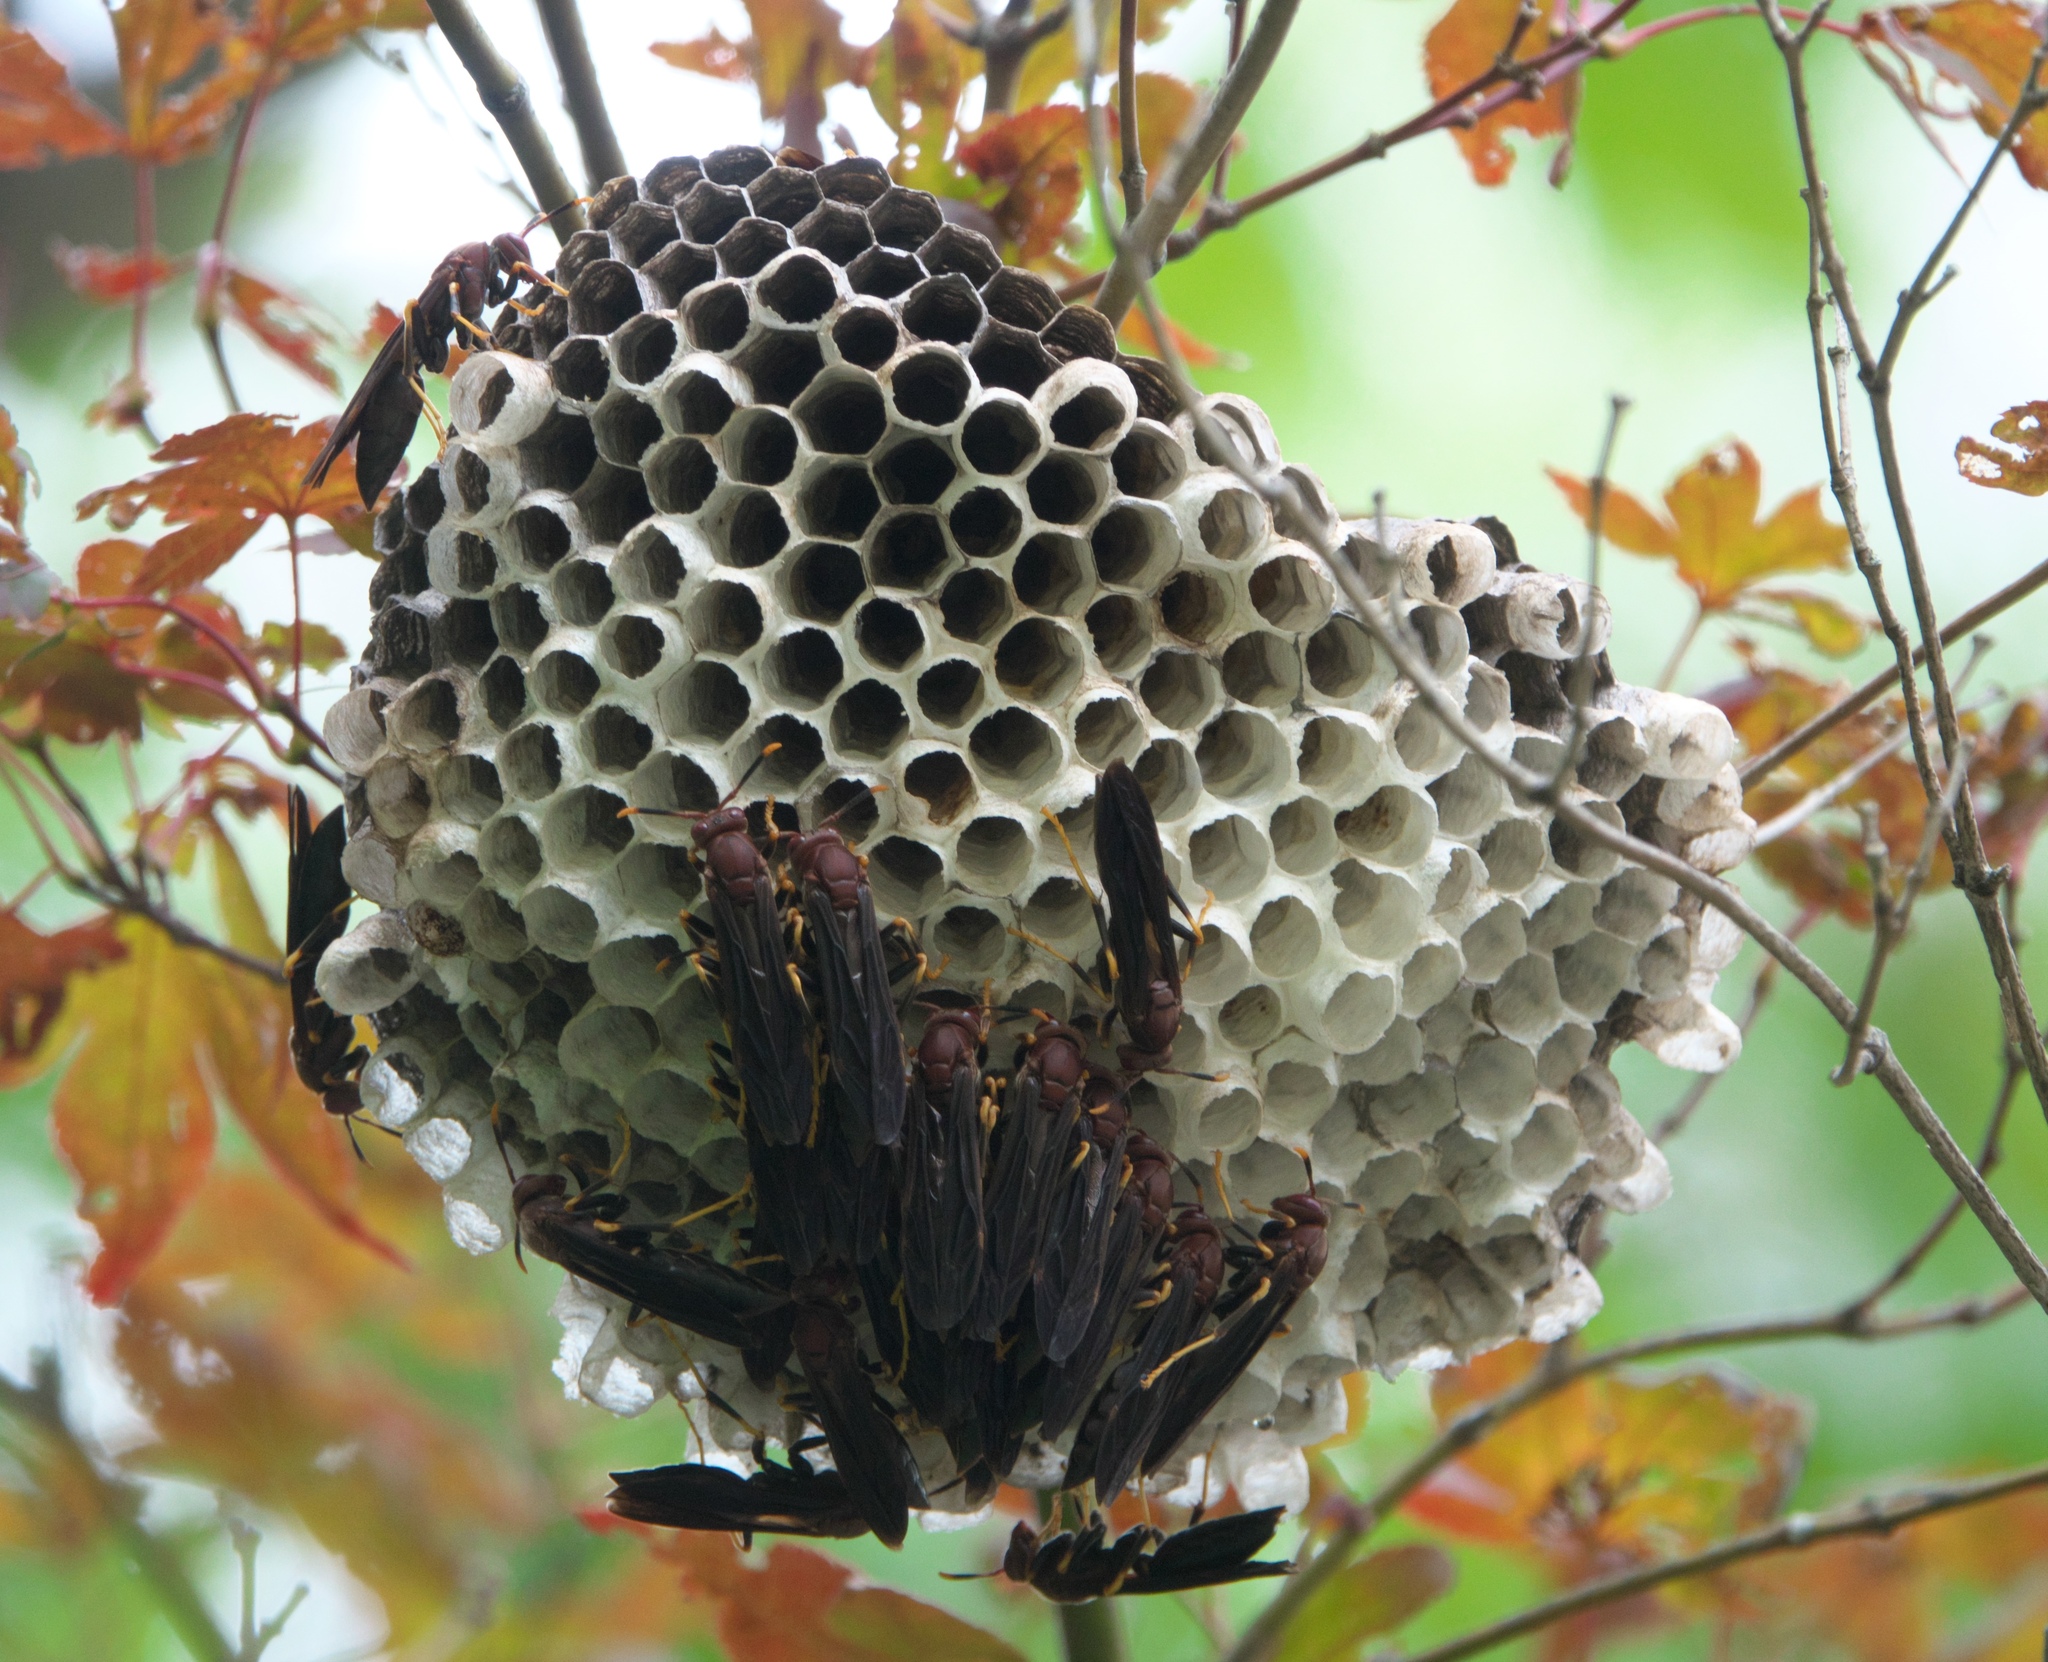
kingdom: Animalia
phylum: Arthropoda
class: Insecta
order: Hymenoptera
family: Eumenidae
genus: Polistes
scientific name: Polistes annularis
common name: Ringed paper wasp
